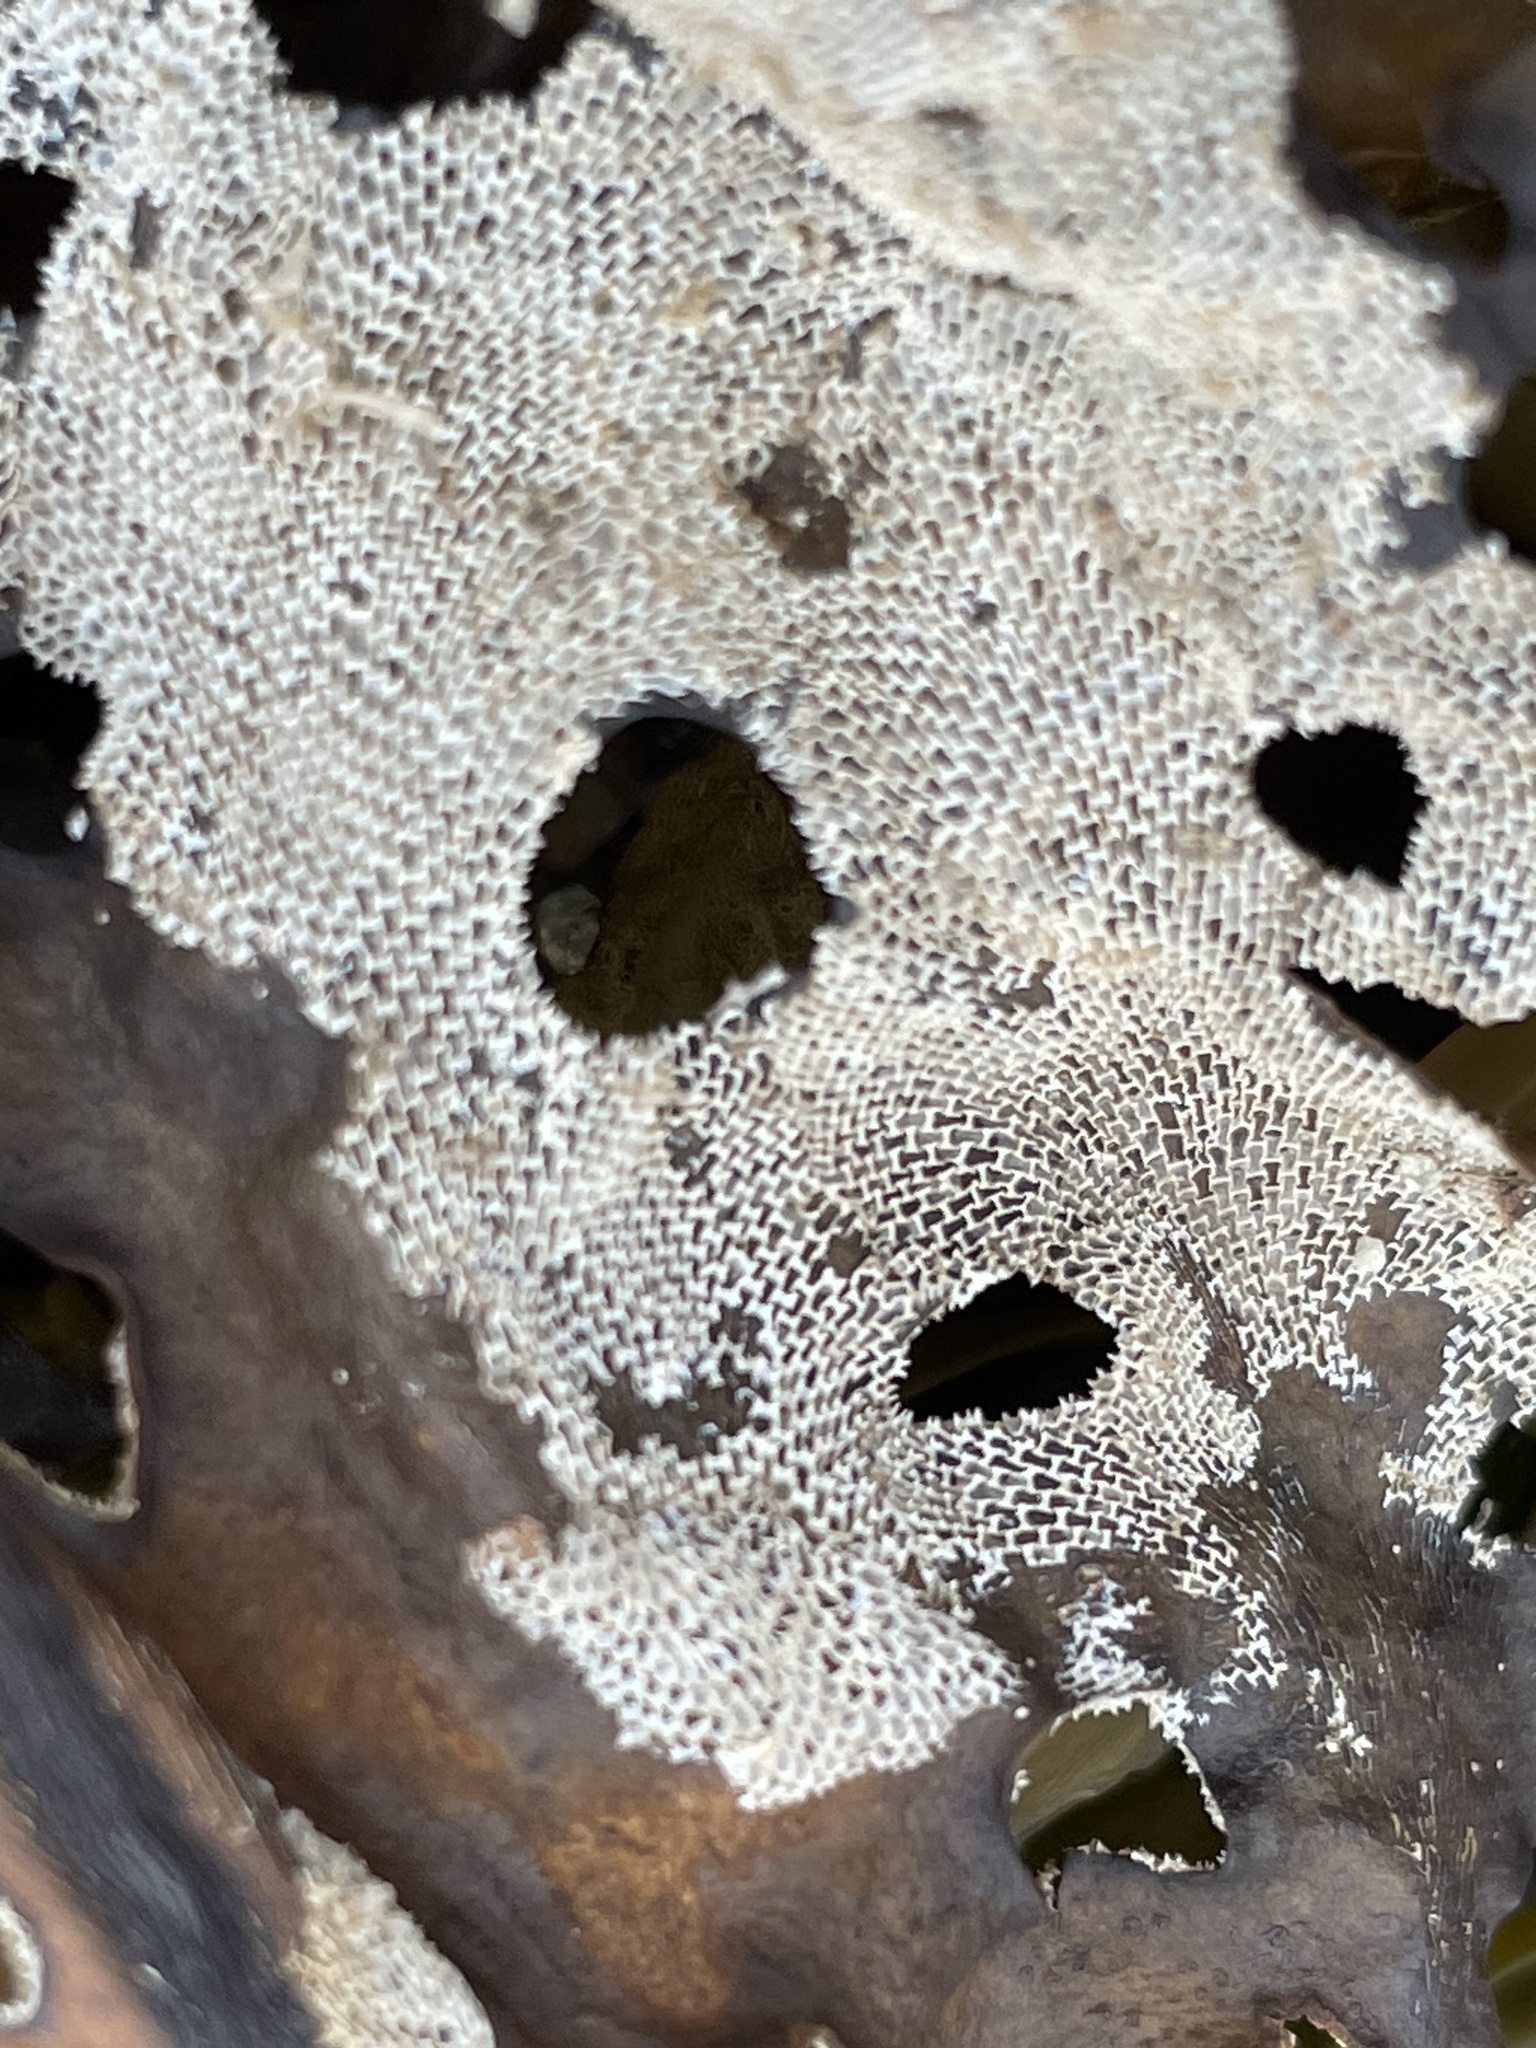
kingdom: Animalia
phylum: Bryozoa
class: Gymnolaemata
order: Cheilostomatida
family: Membraniporidae
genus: Membranipora
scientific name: Membranipora membranacea
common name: Sea mat
